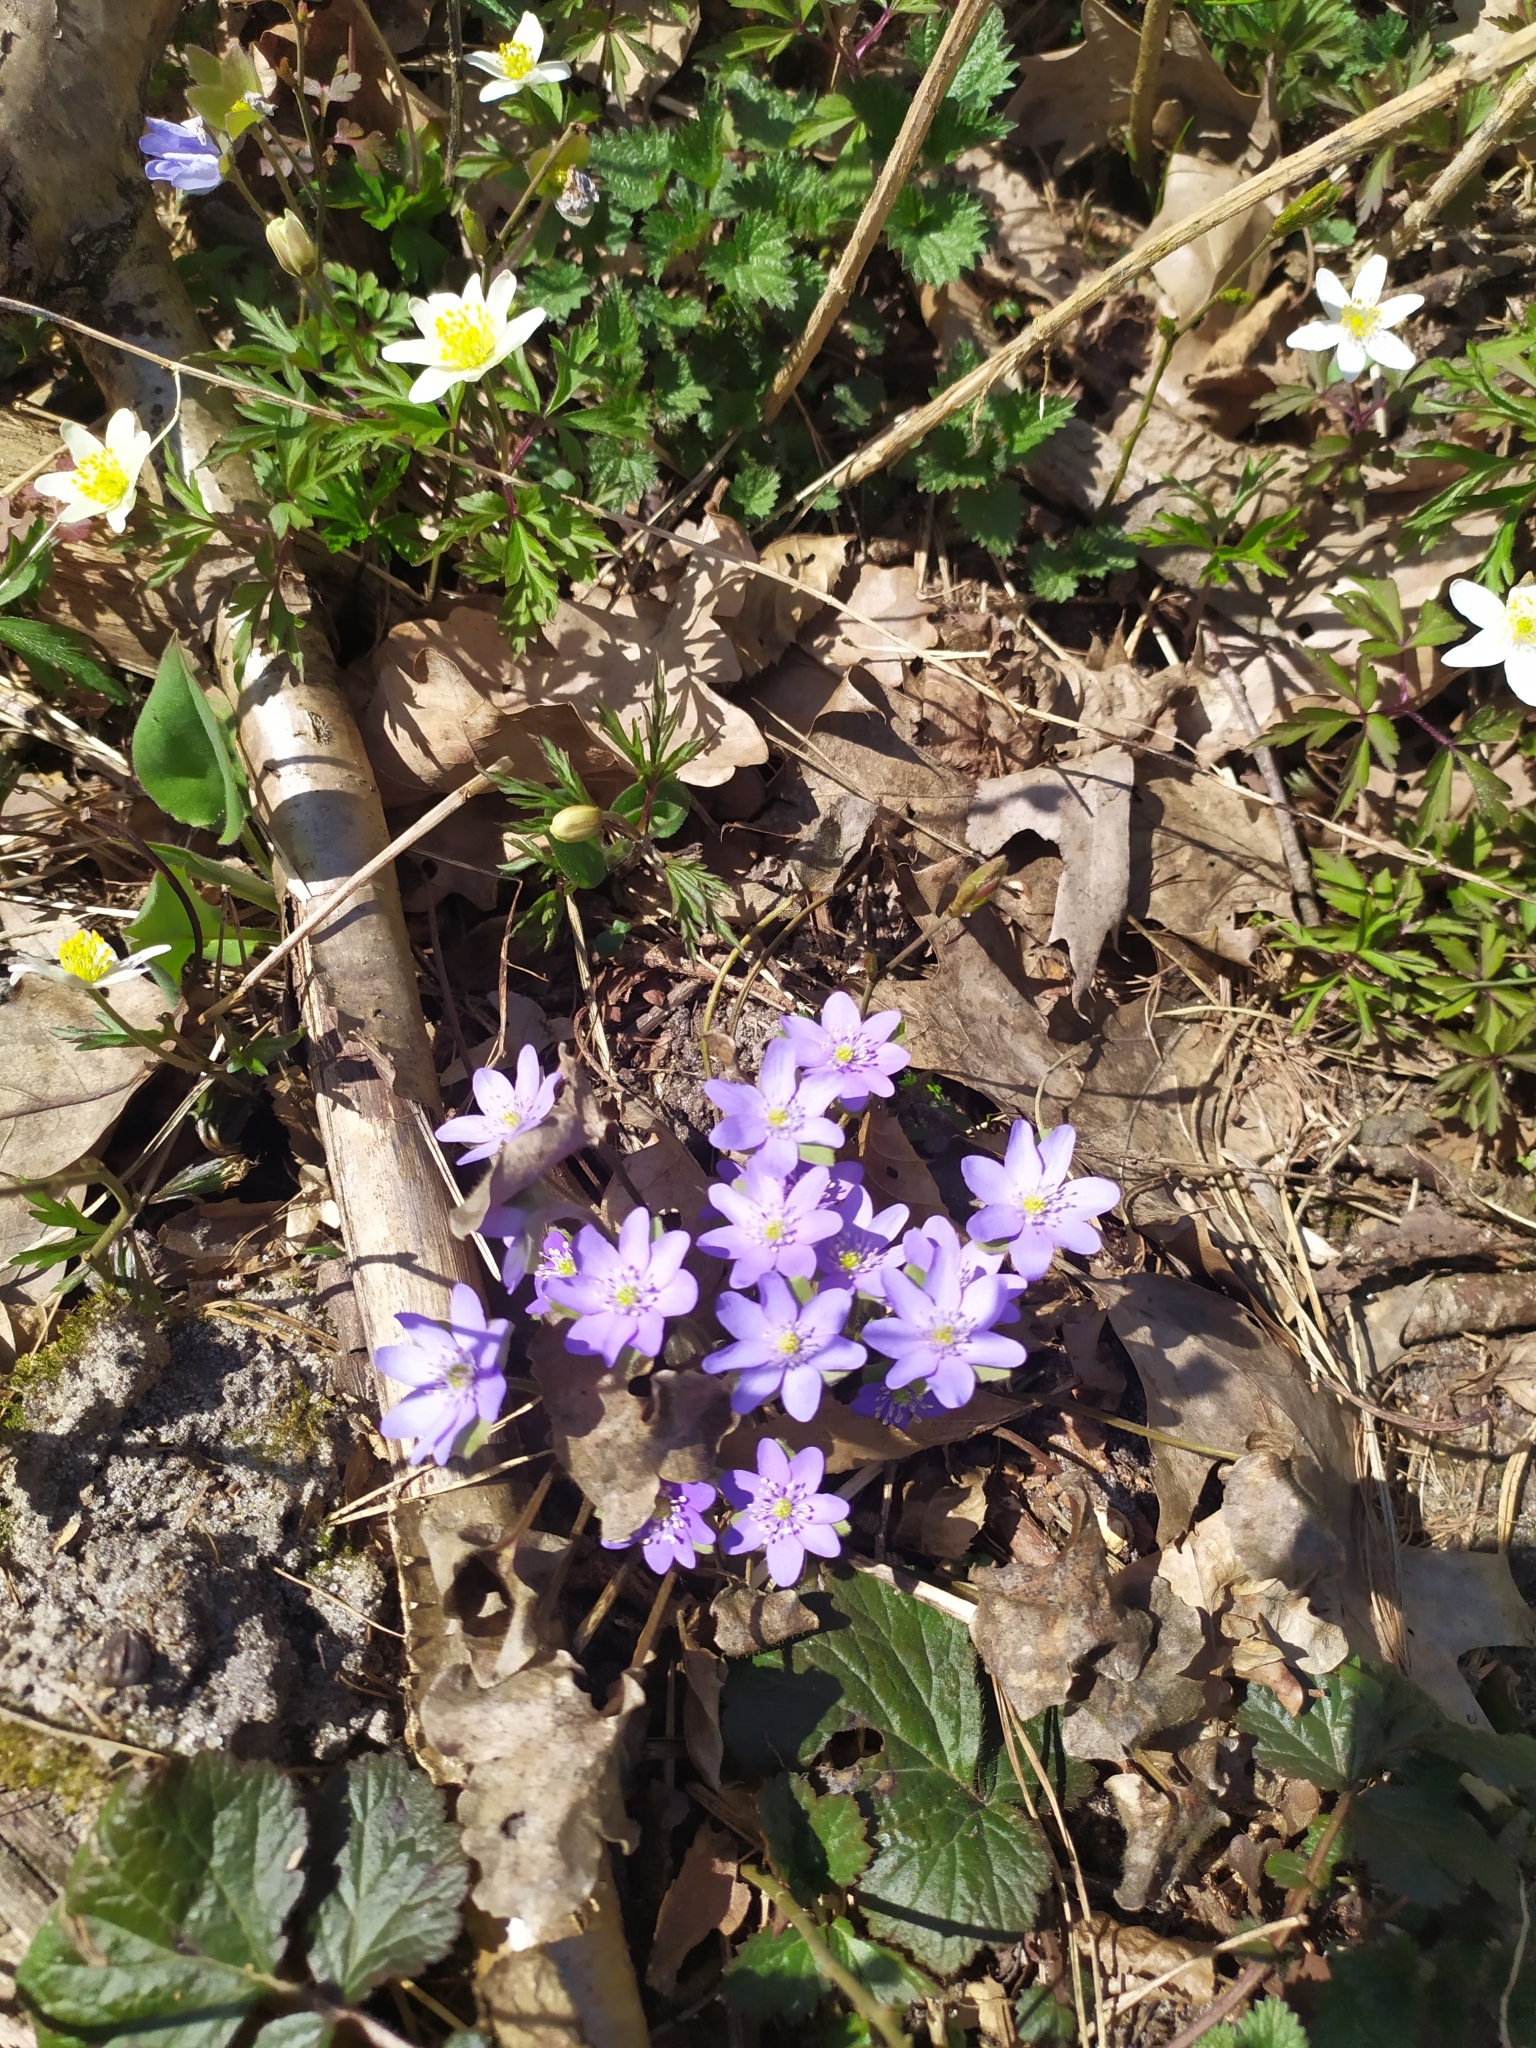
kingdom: Plantae
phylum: Tracheophyta
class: Magnoliopsida
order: Ranunculales
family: Ranunculaceae
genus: Hepatica
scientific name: Hepatica nobilis
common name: Liverleaf
